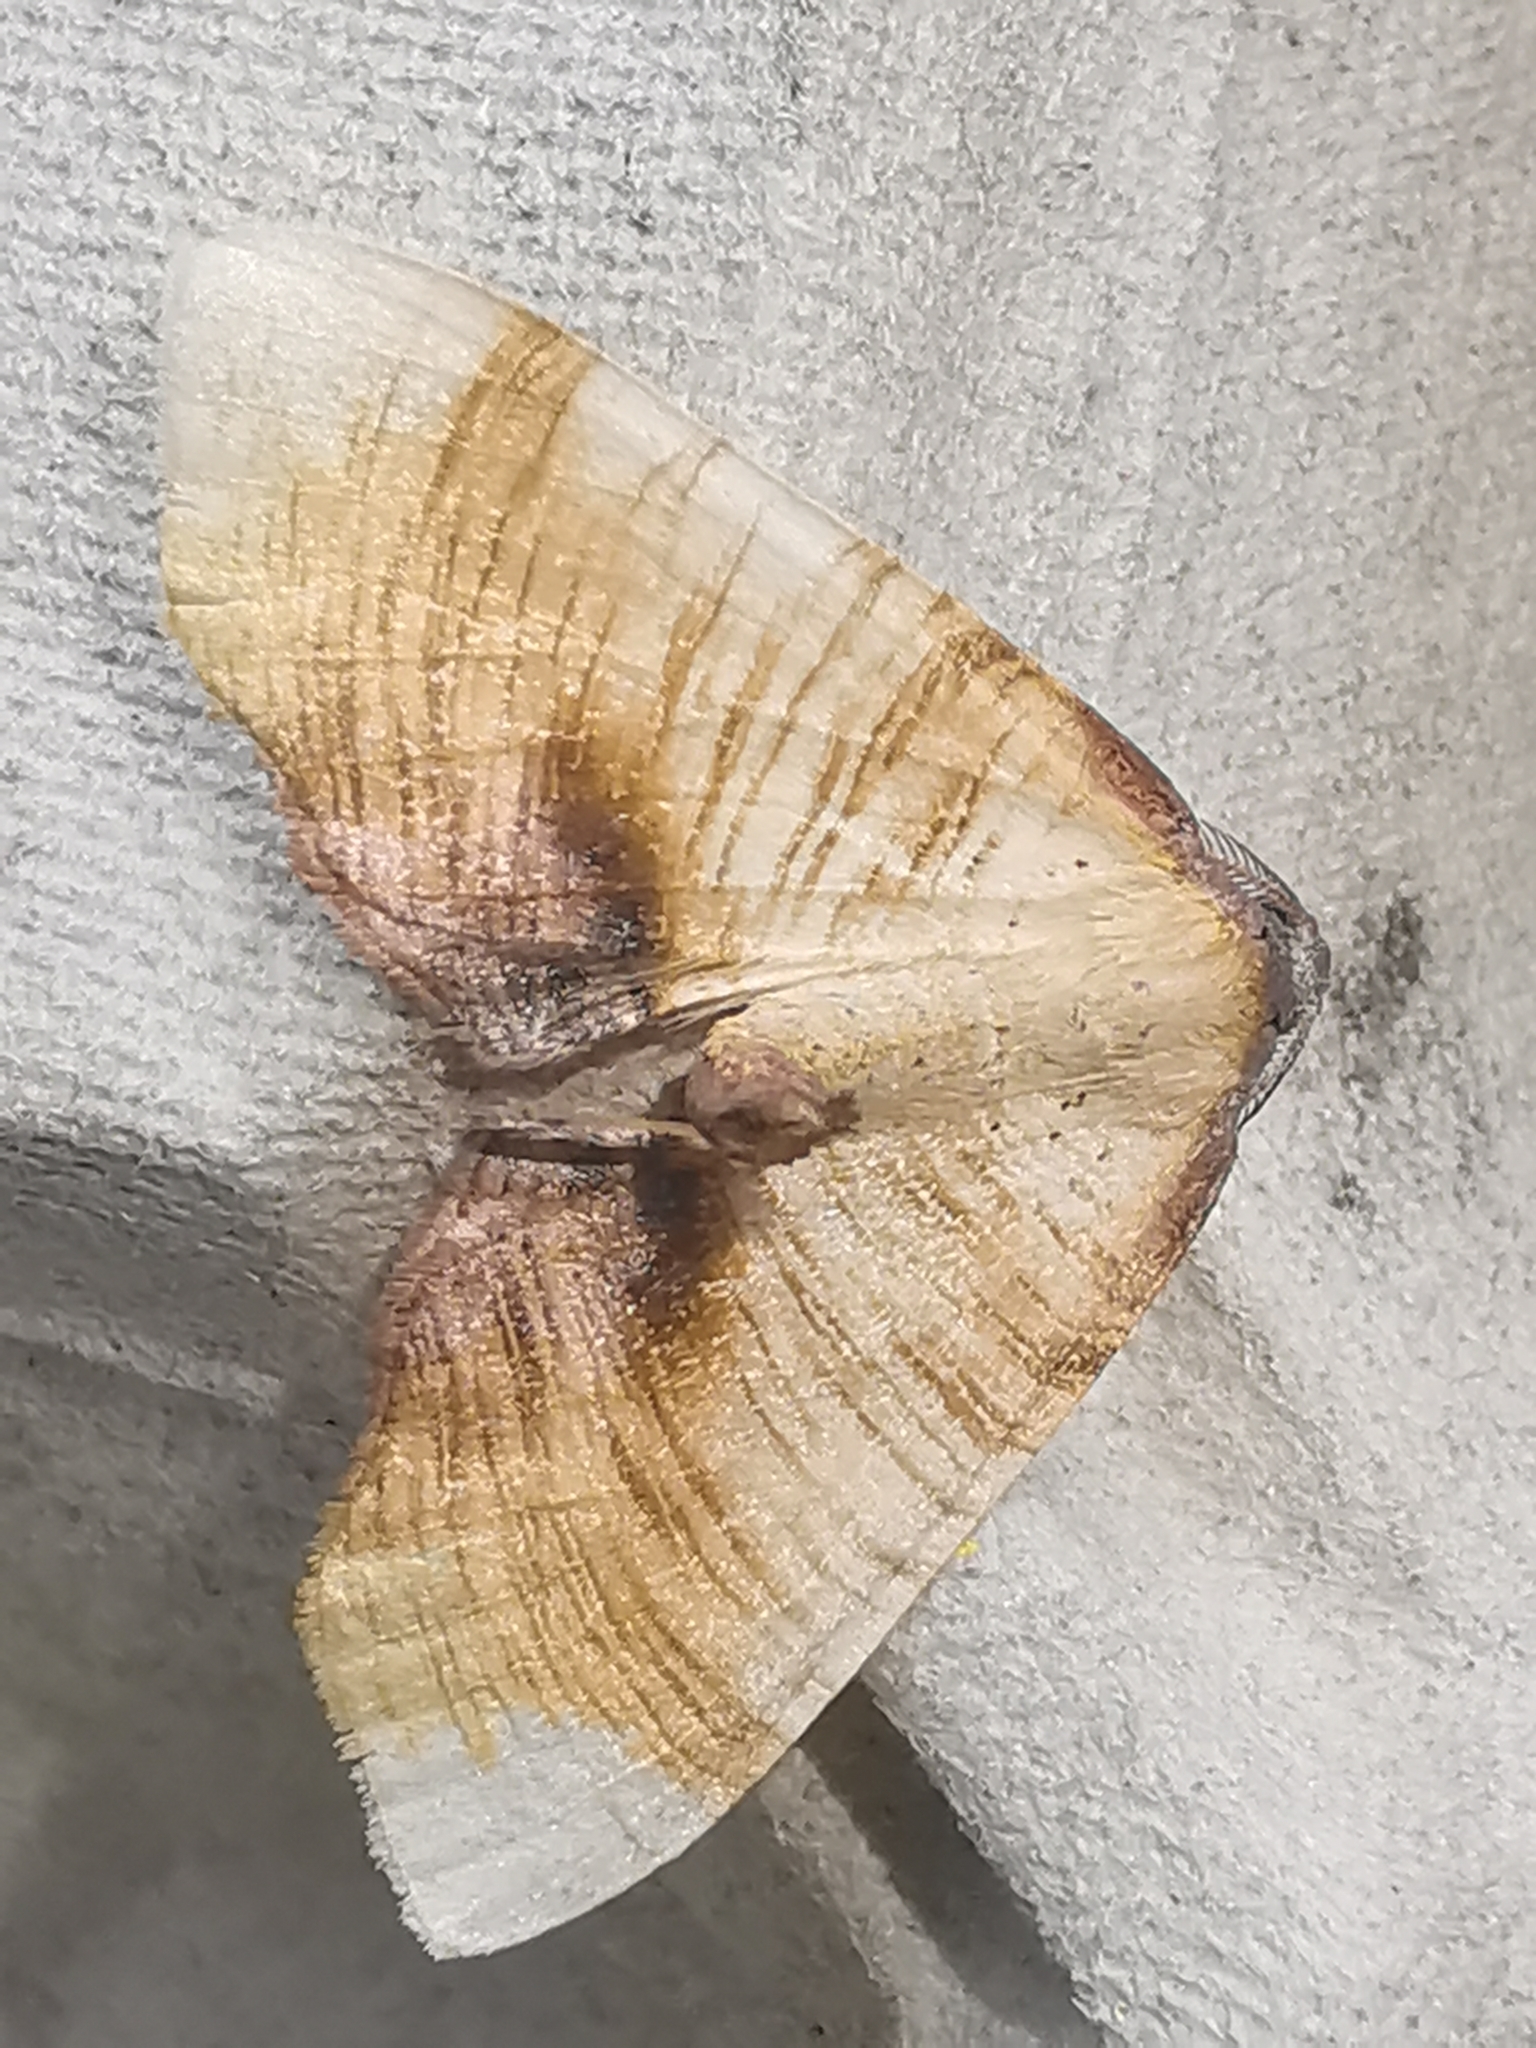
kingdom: Animalia
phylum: Arthropoda
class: Insecta
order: Lepidoptera
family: Geometridae
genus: Plagodis
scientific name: Plagodis dolabraria
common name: Scorched wing
